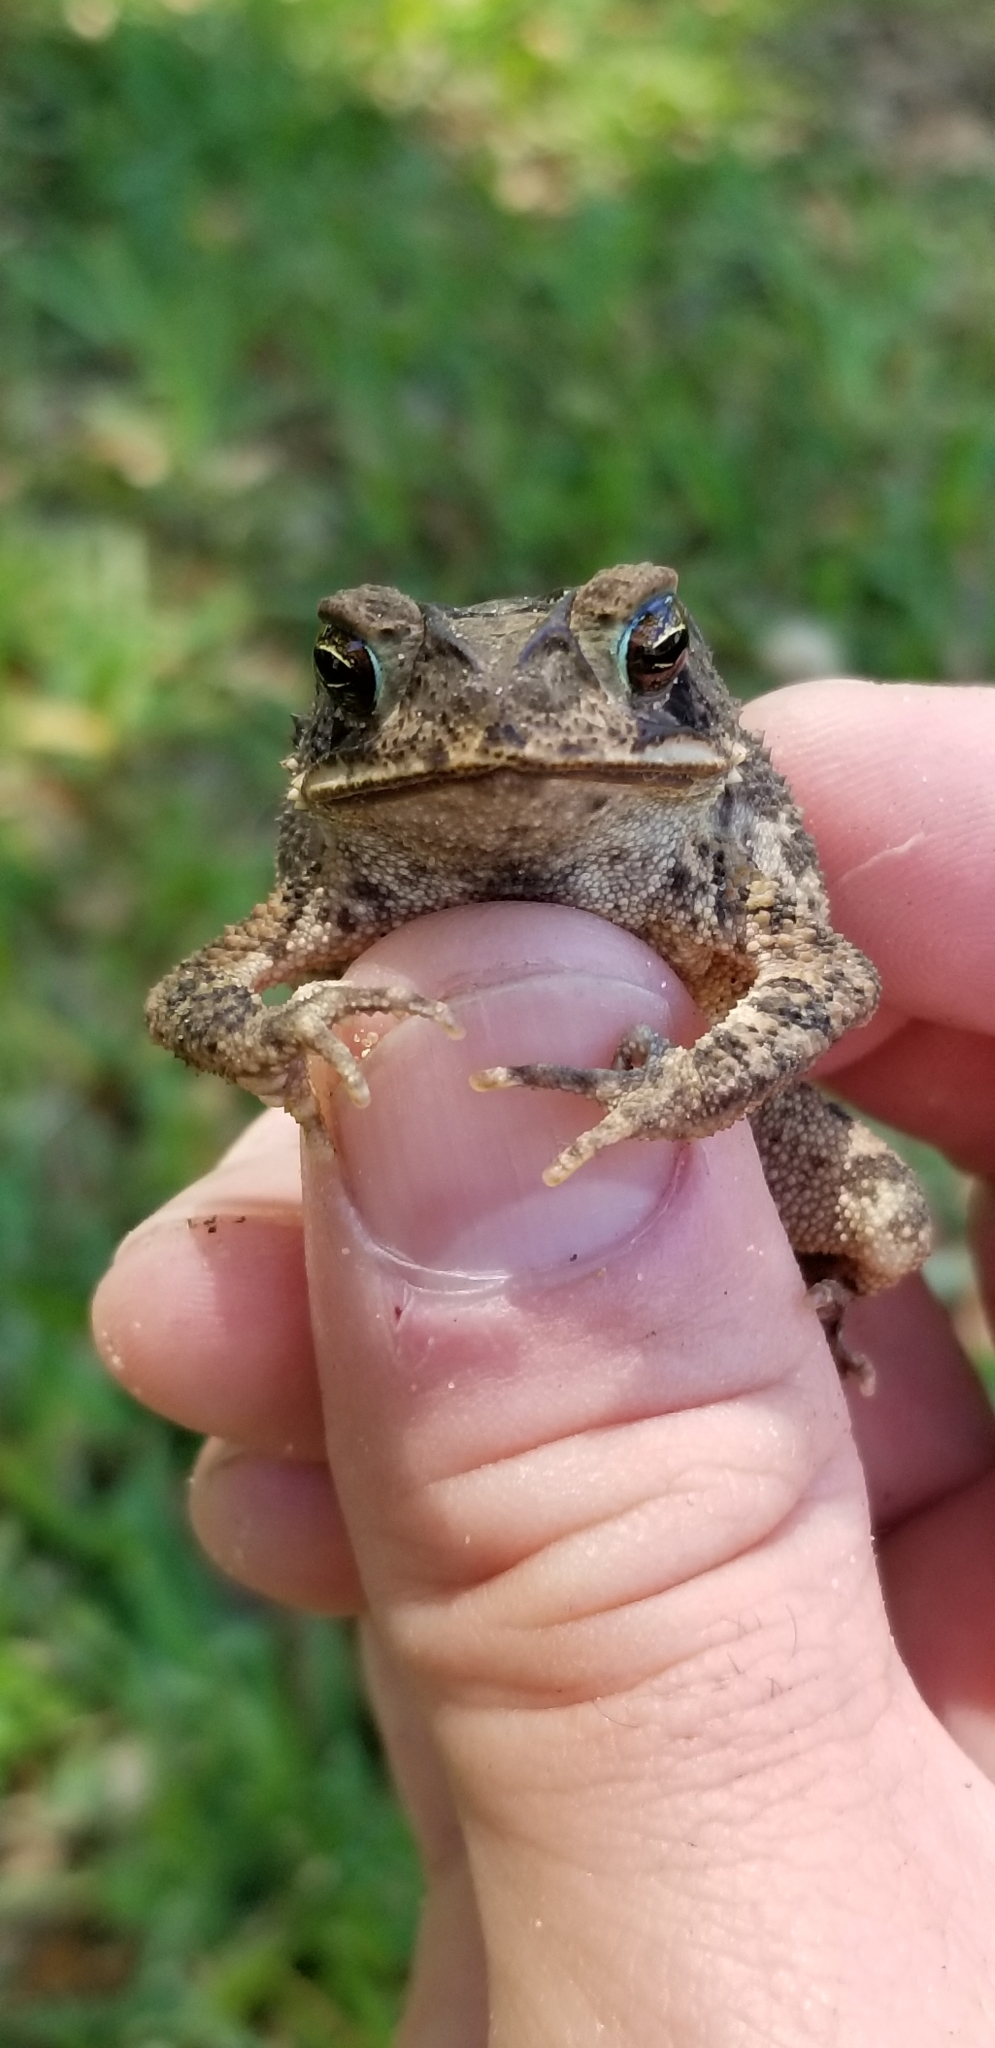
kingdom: Animalia
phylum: Chordata
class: Amphibia
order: Anura
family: Bufonidae
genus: Incilius
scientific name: Incilius nebulifer
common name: Gulf coast toad
